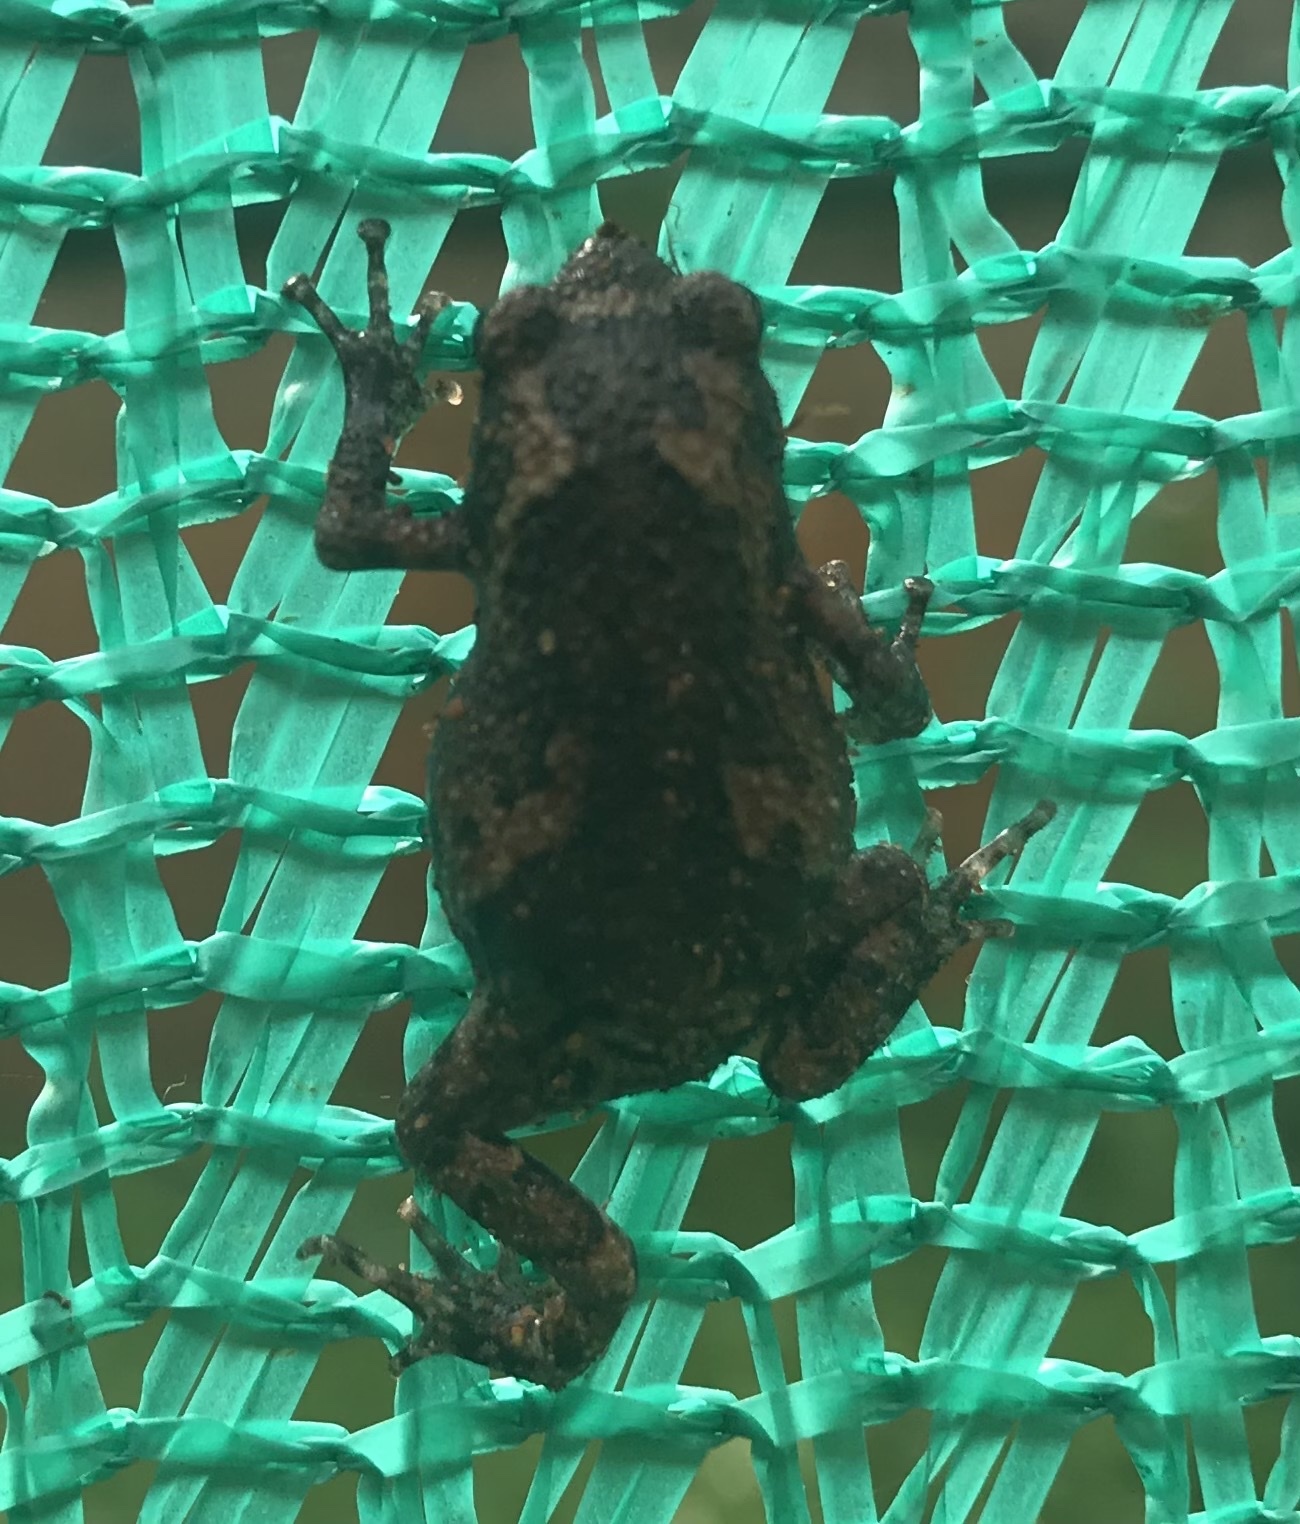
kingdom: Animalia
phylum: Chordata
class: Amphibia
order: Anura
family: Microhylidae
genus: Uperodon
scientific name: Uperodon taprobanicus
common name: Ceylon kaloula
